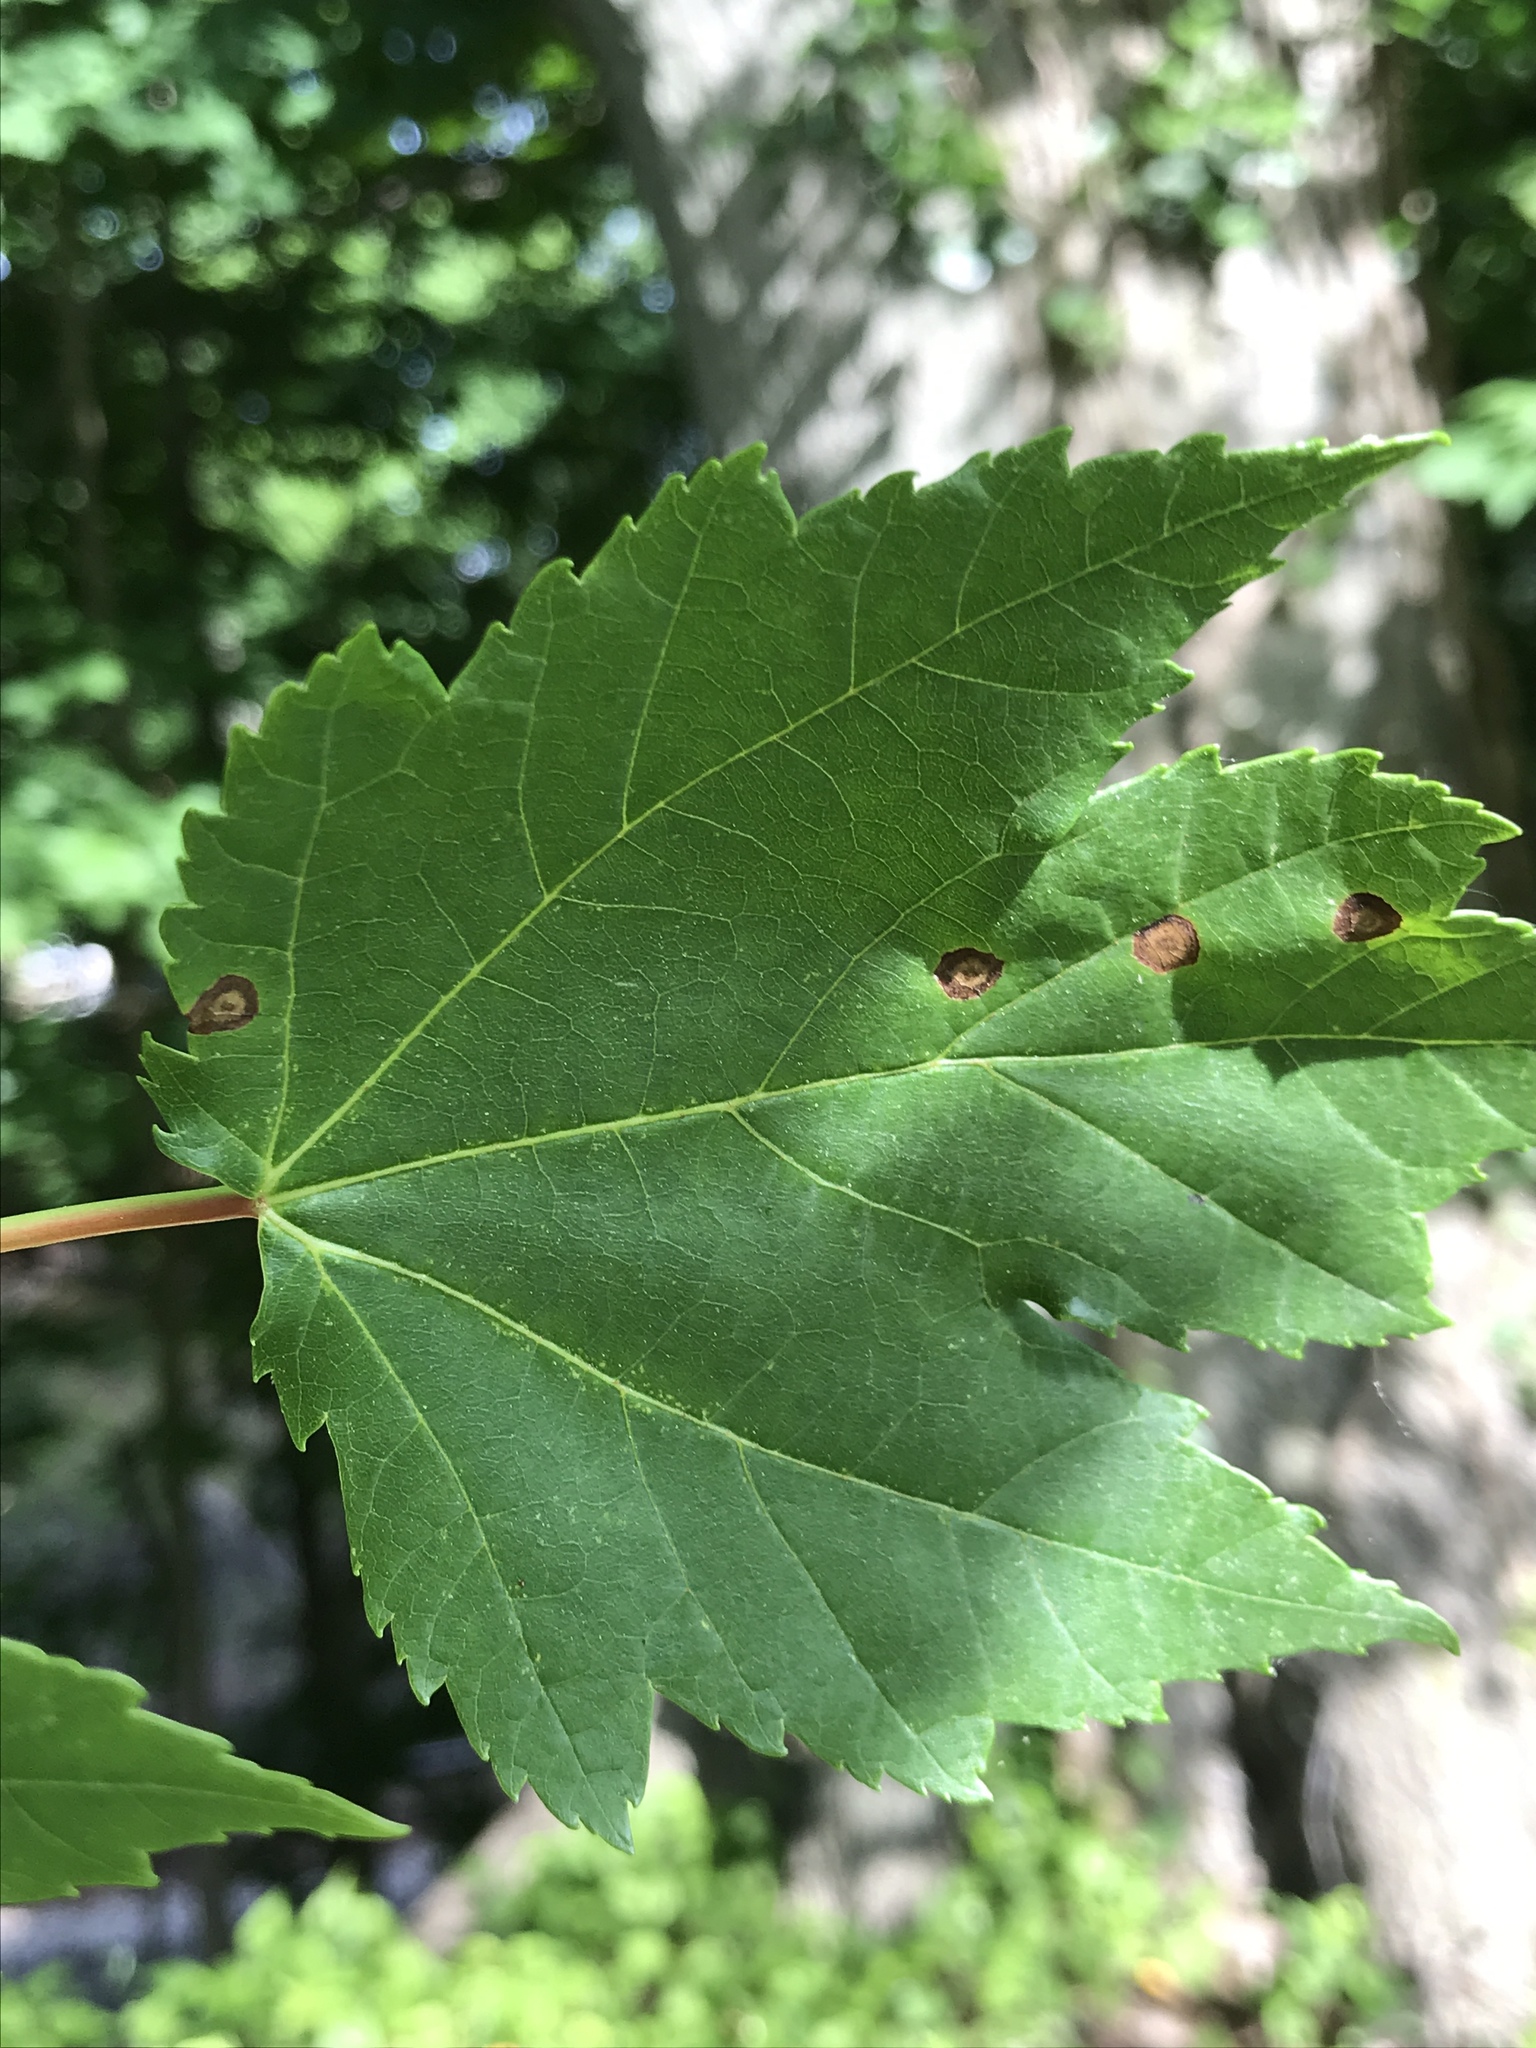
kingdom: Plantae
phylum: Tracheophyta
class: Magnoliopsida
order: Sapindales
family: Sapindaceae
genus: Acer
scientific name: Acer rubrum
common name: Red maple
